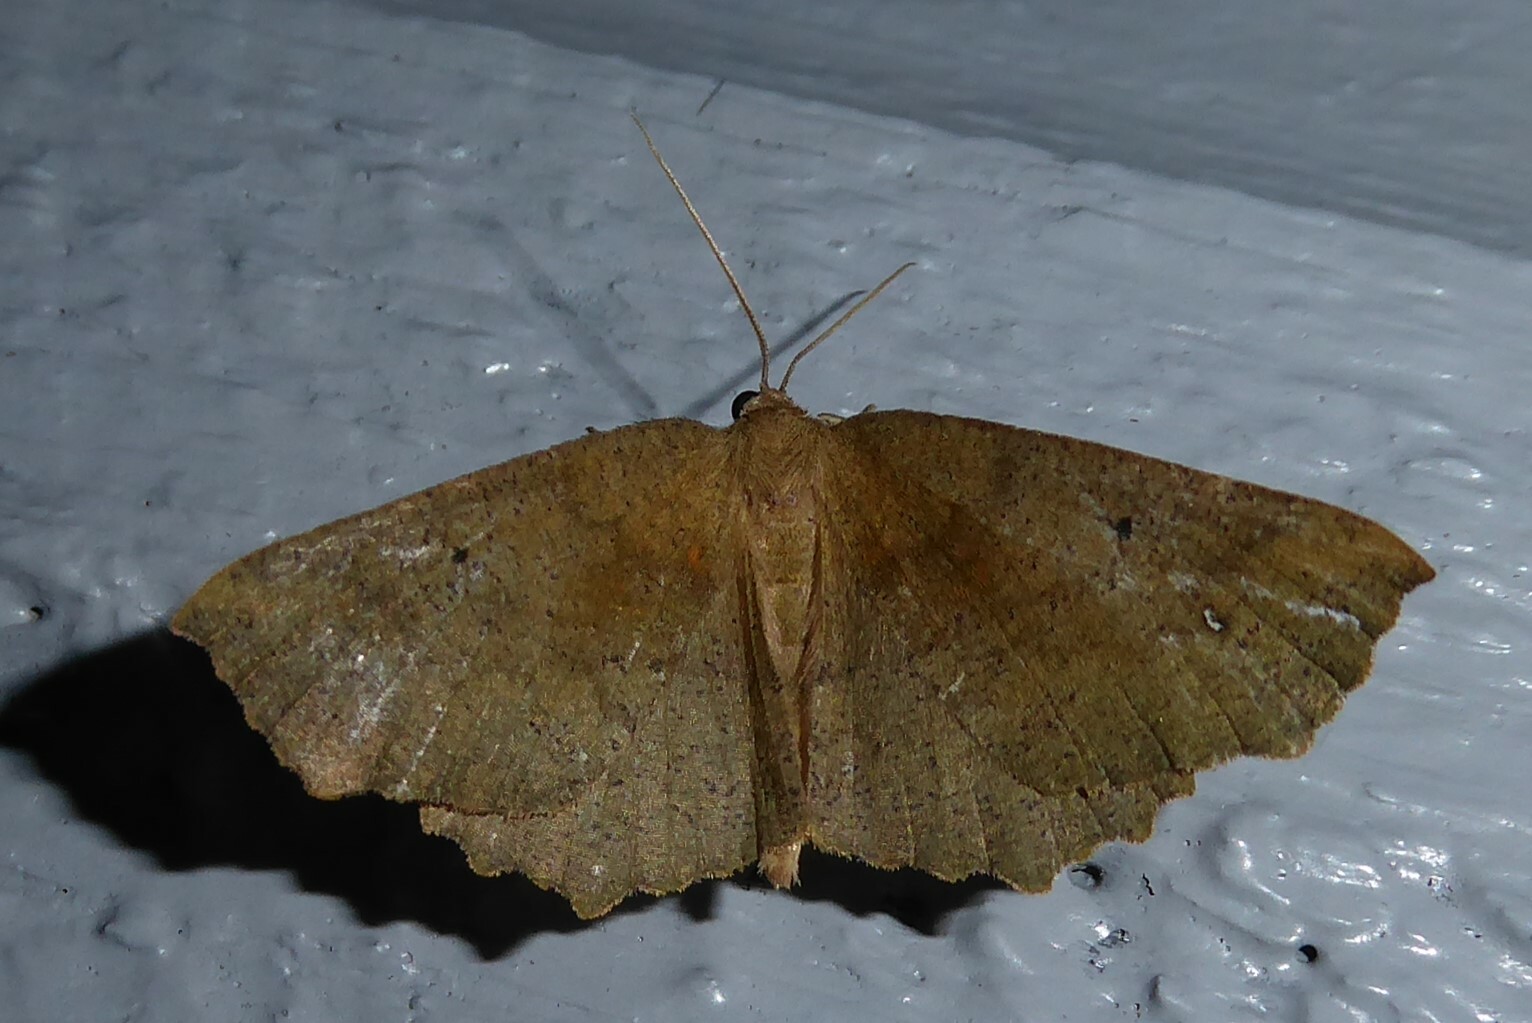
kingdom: Animalia
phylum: Arthropoda
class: Insecta
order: Lepidoptera
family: Geometridae
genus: Xyridacma
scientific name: Xyridacma ustaria
